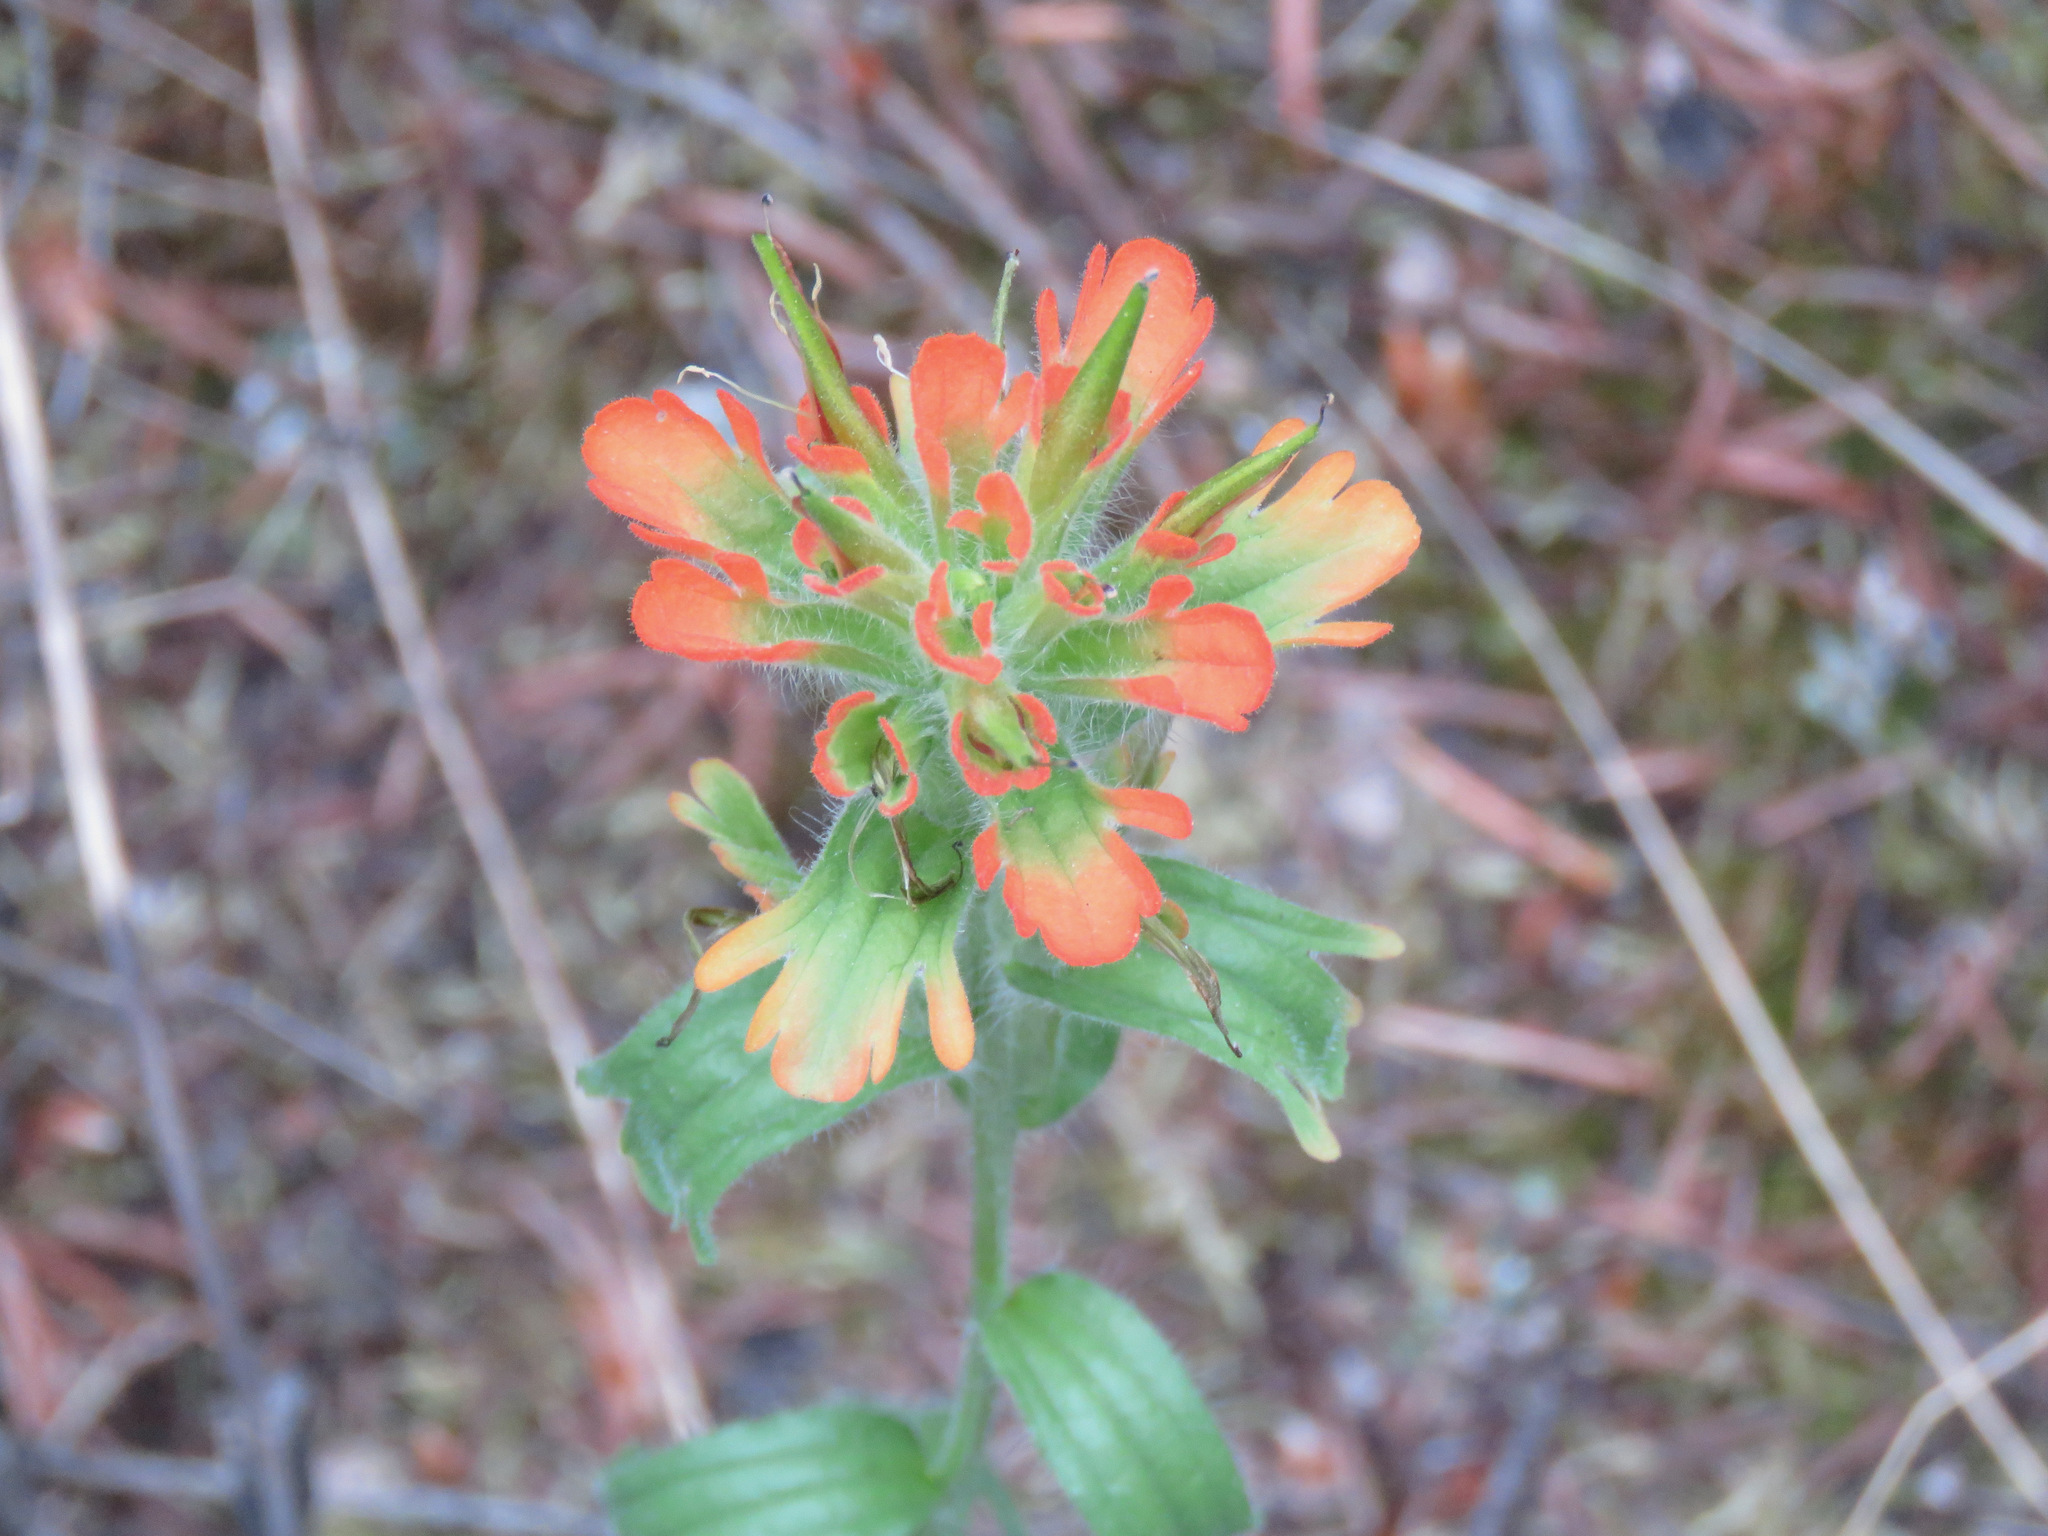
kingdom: Plantae
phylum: Tracheophyta
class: Magnoliopsida
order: Lamiales
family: Orobanchaceae
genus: Castilleja
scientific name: Castilleja hispida
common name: Bristly paintbrush
